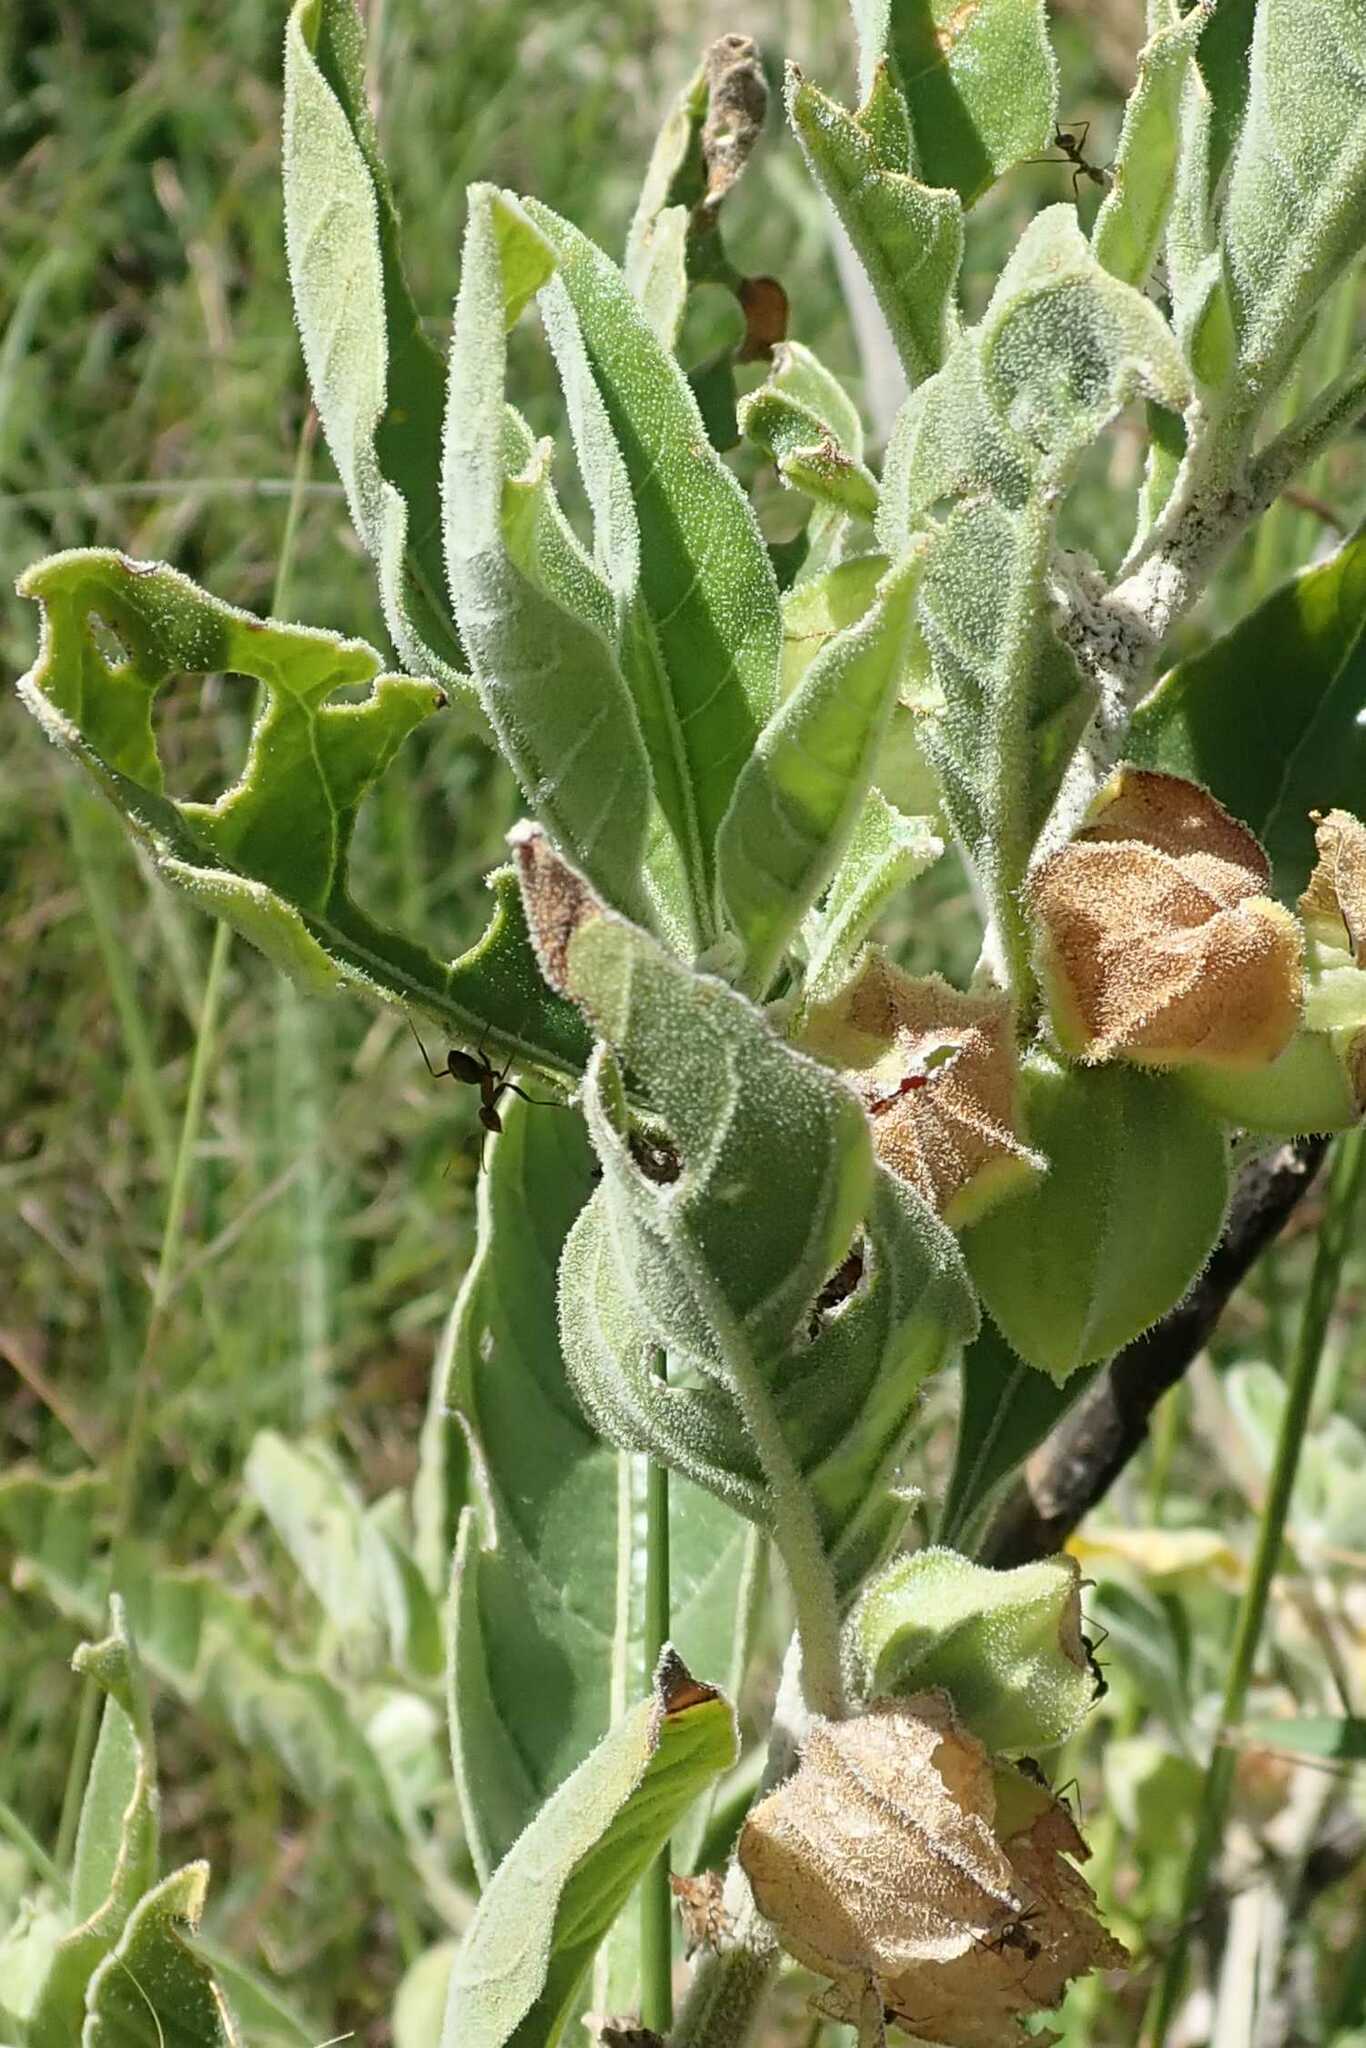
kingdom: Plantae
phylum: Tracheophyta
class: Magnoliopsida
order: Solanales
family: Solanaceae
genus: Withania
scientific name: Withania somnifera
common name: Winter-cherry
